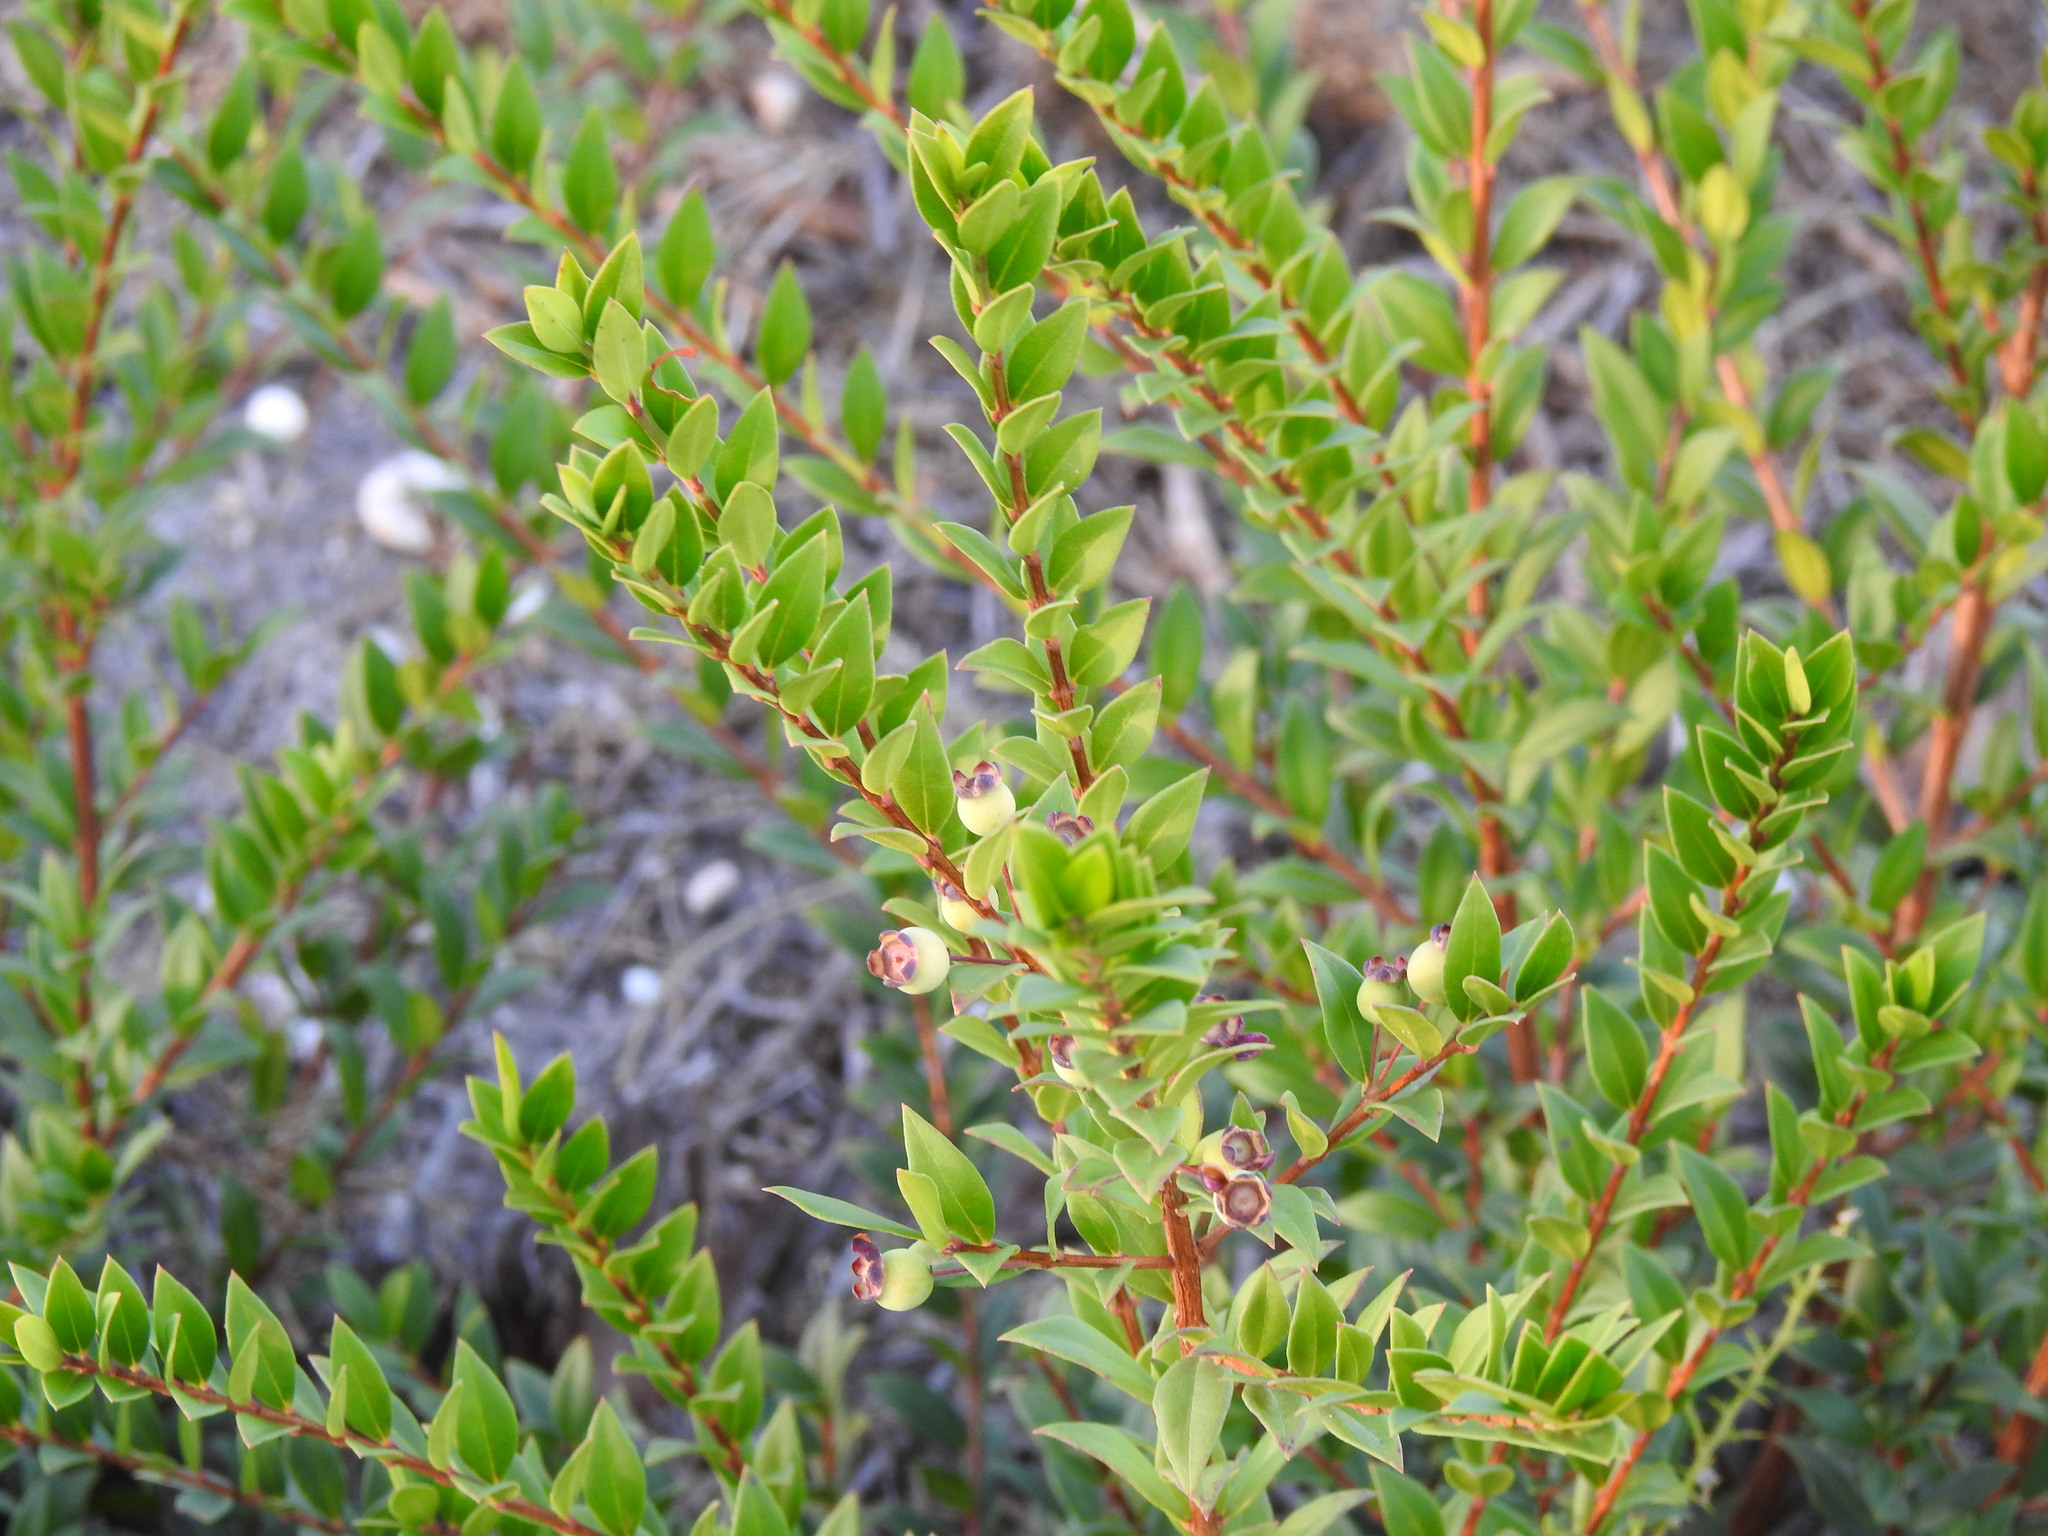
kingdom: Plantae
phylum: Tracheophyta
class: Magnoliopsida
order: Myrtales
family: Myrtaceae
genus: Myrtus
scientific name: Myrtus communis
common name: Myrtle
